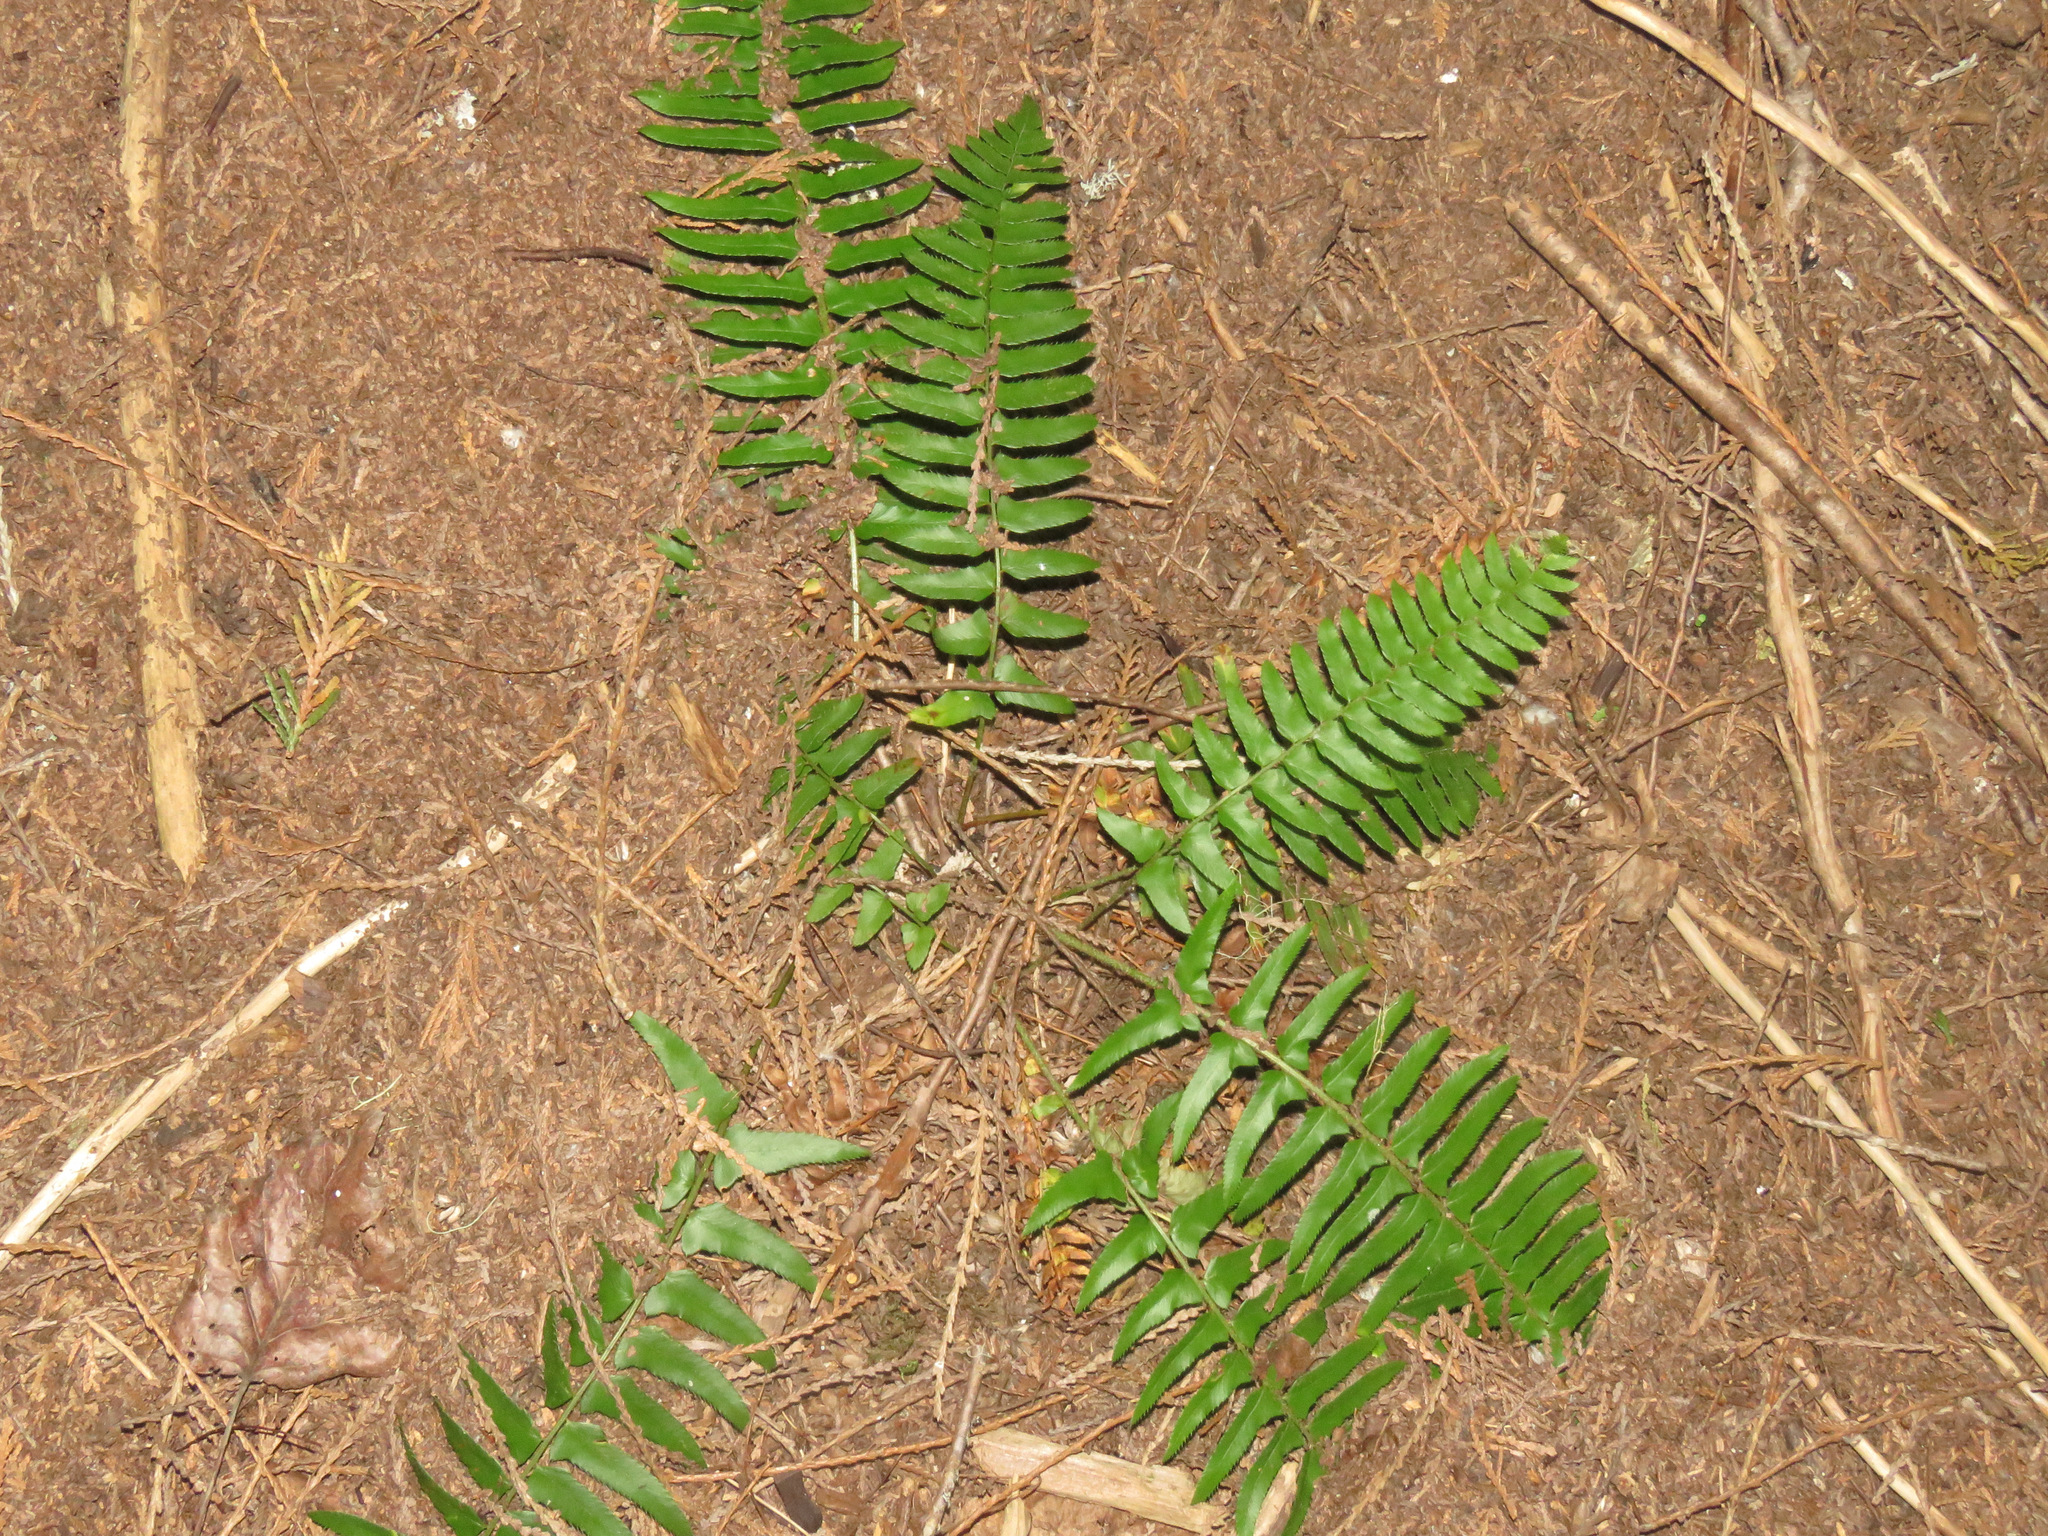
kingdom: Plantae
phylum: Tracheophyta
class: Polypodiopsida
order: Polypodiales
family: Dryopteridaceae
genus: Polystichum
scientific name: Polystichum munitum
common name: Western sword-fern
